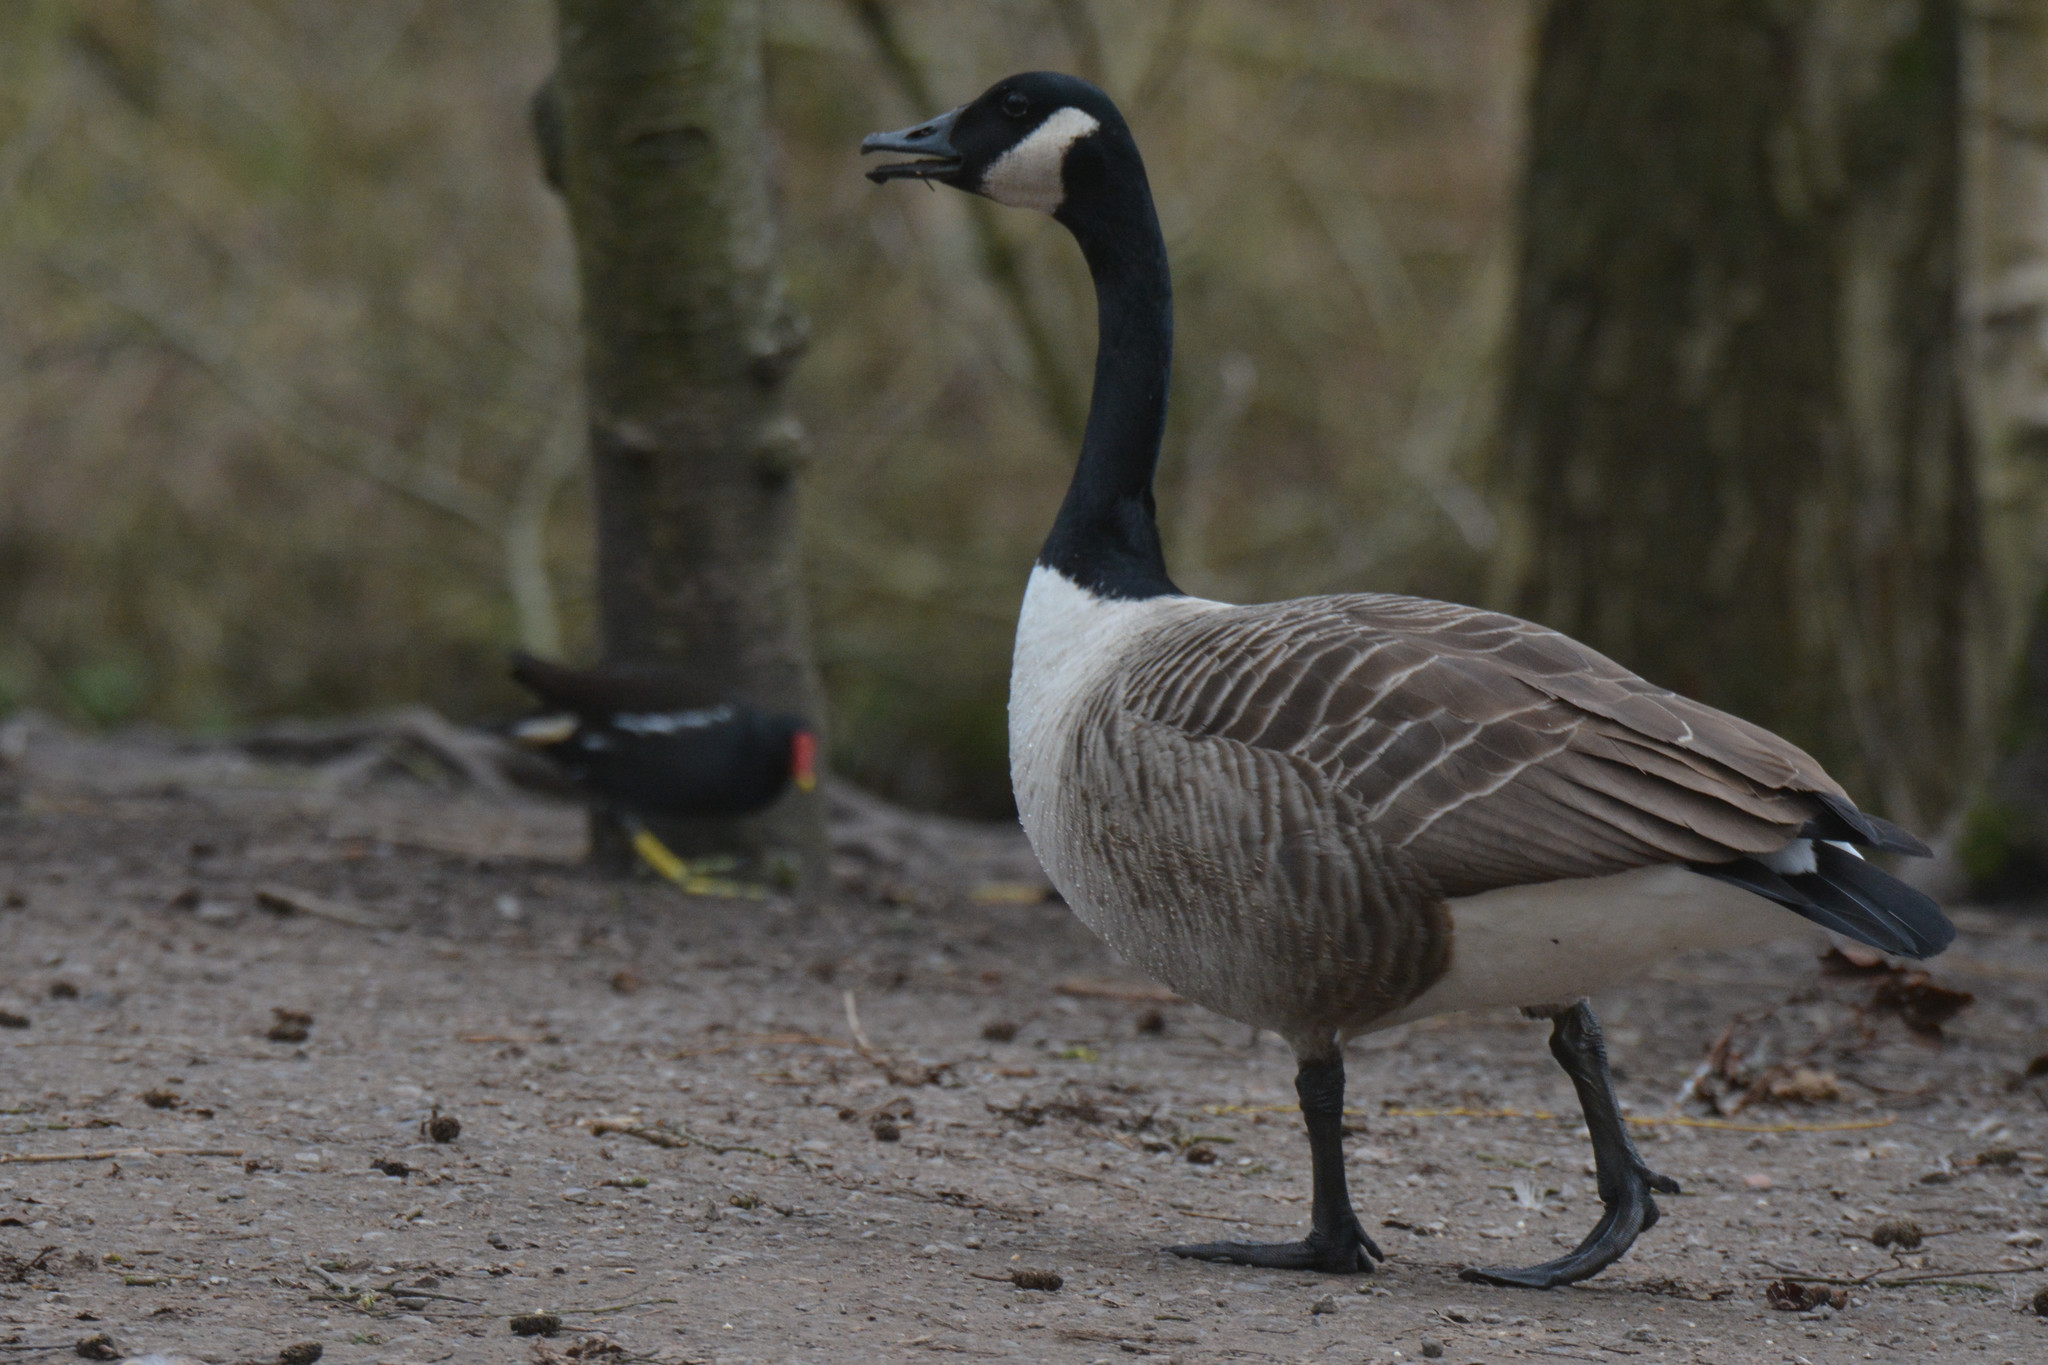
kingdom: Animalia
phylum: Chordata
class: Aves
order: Anseriformes
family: Anatidae
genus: Branta
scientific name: Branta canadensis
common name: Canada goose
